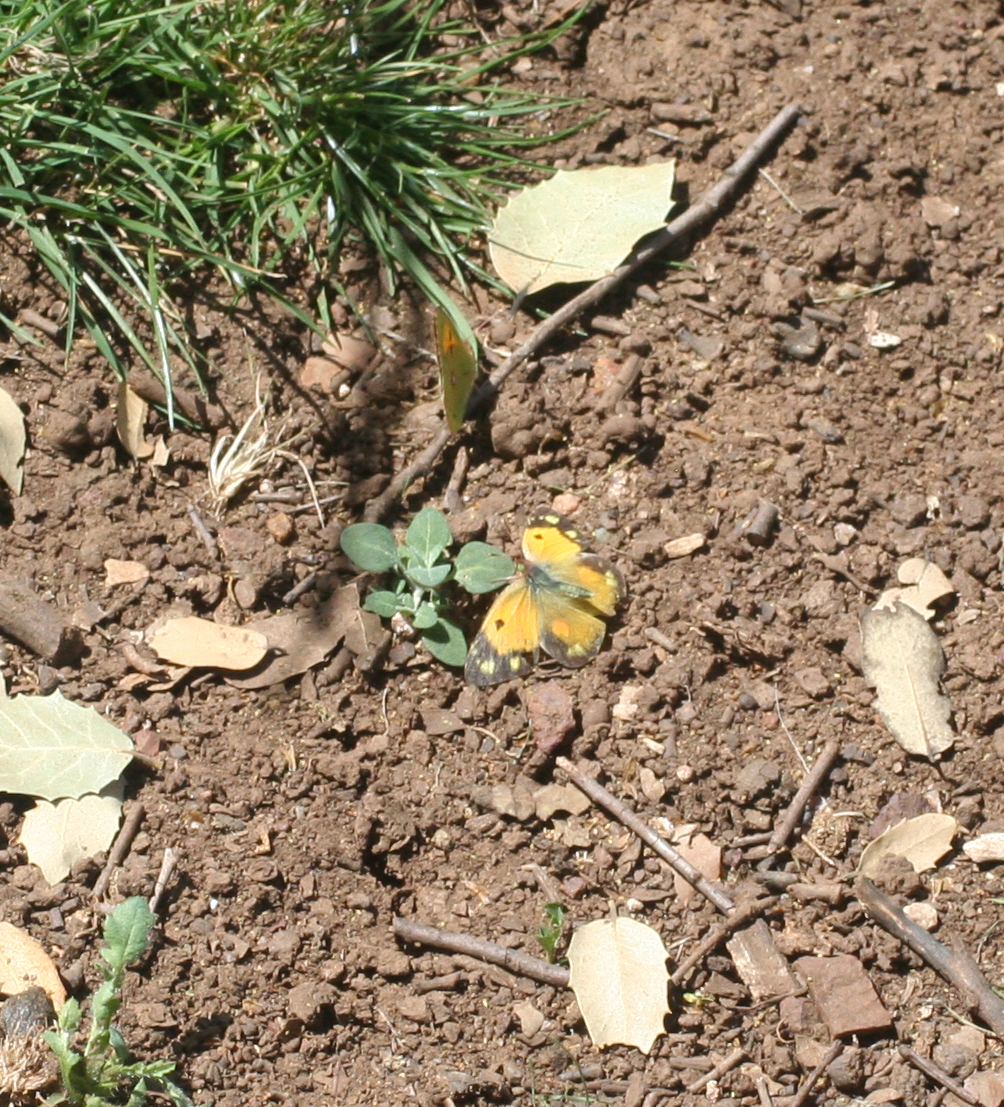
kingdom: Animalia
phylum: Arthropoda
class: Insecta
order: Lepidoptera
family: Pieridae
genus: Colias
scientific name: Colias croceus
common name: Clouded yellow
